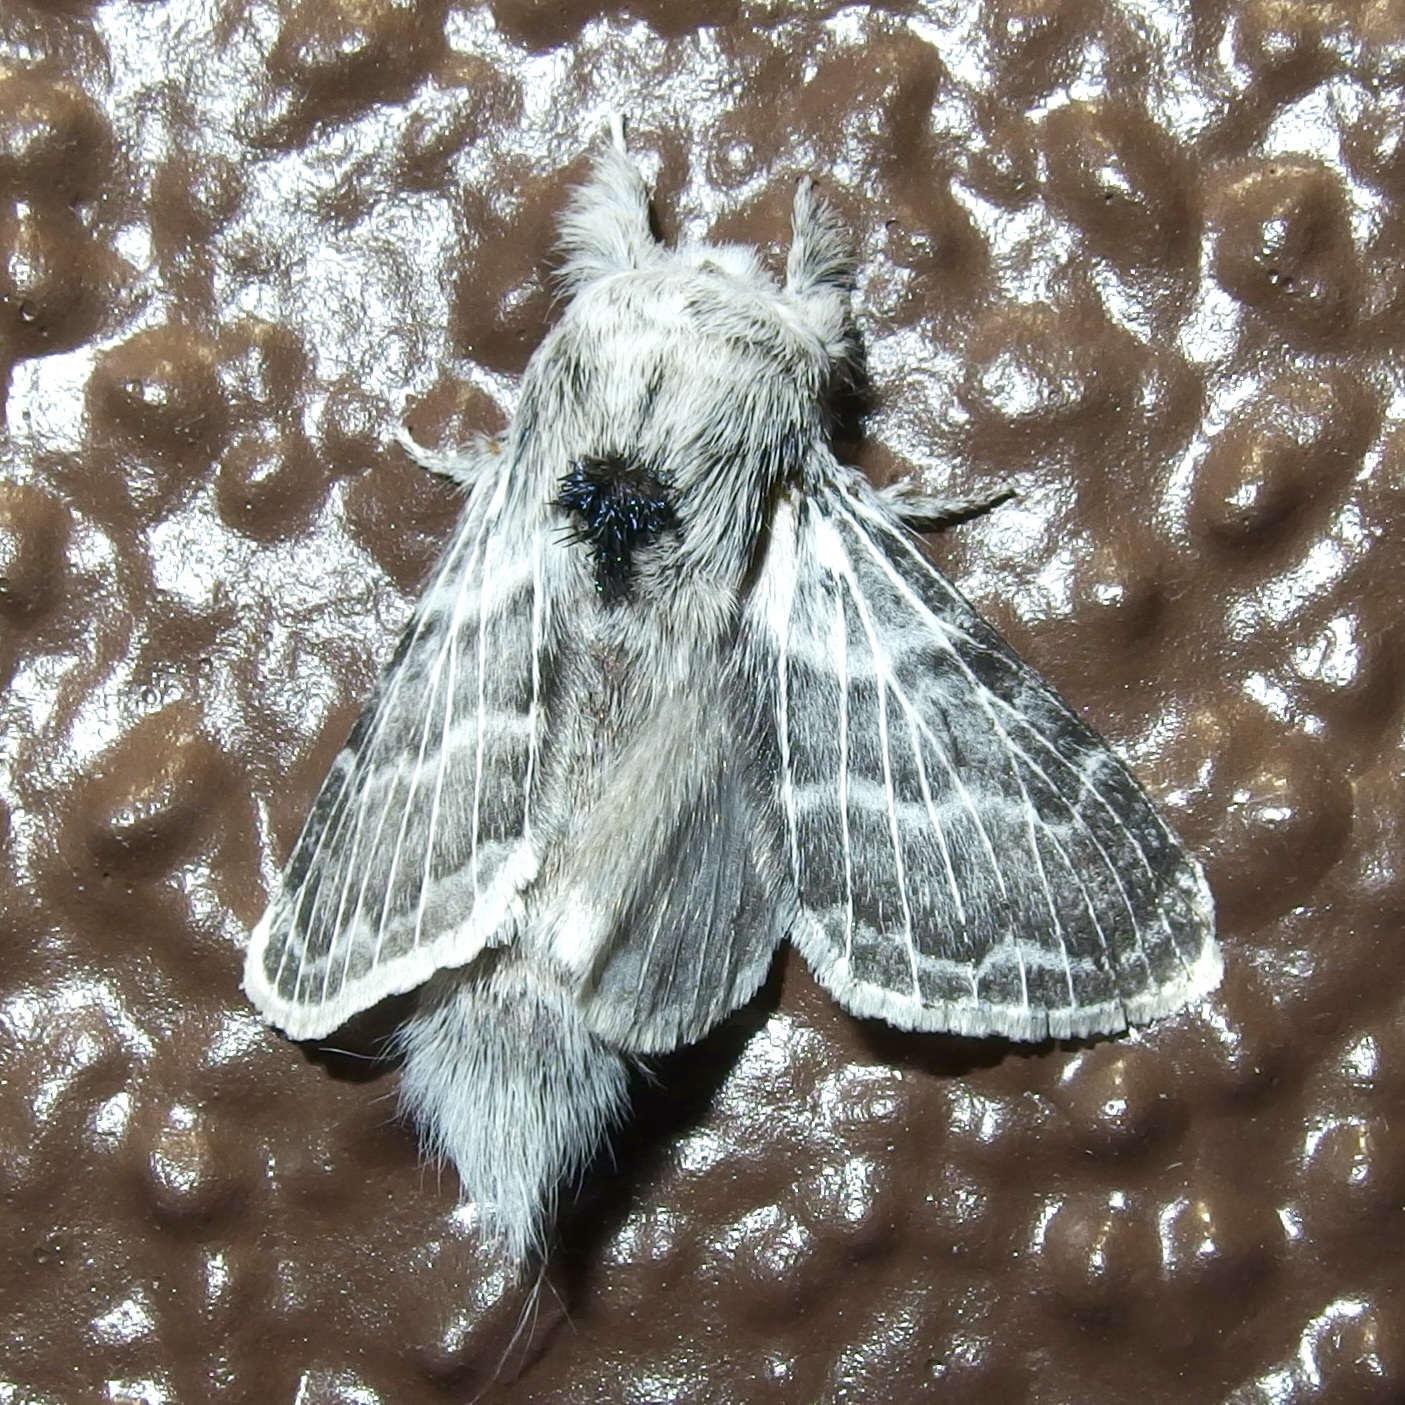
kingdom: Animalia
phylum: Arthropoda
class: Insecta
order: Lepidoptera
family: Lasiocampidae
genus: Apotolype
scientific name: Apotolype brevicrista
